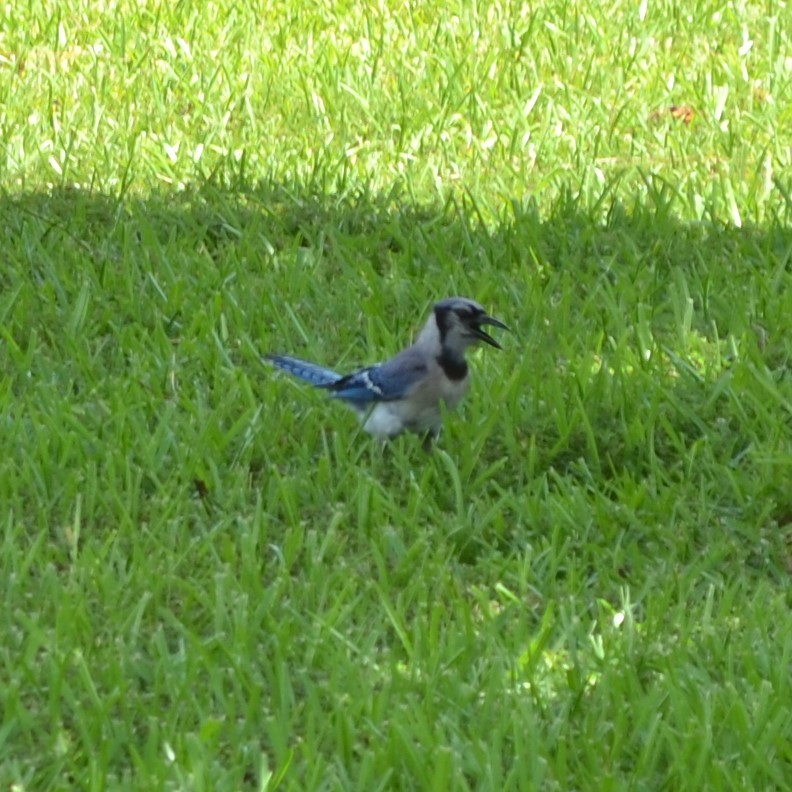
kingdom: Animalia
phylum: Chordata
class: Aves
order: Passeriformes
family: Corvidae
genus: Cyanocitta
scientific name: Cyanocitta cristata
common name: Blue jay
